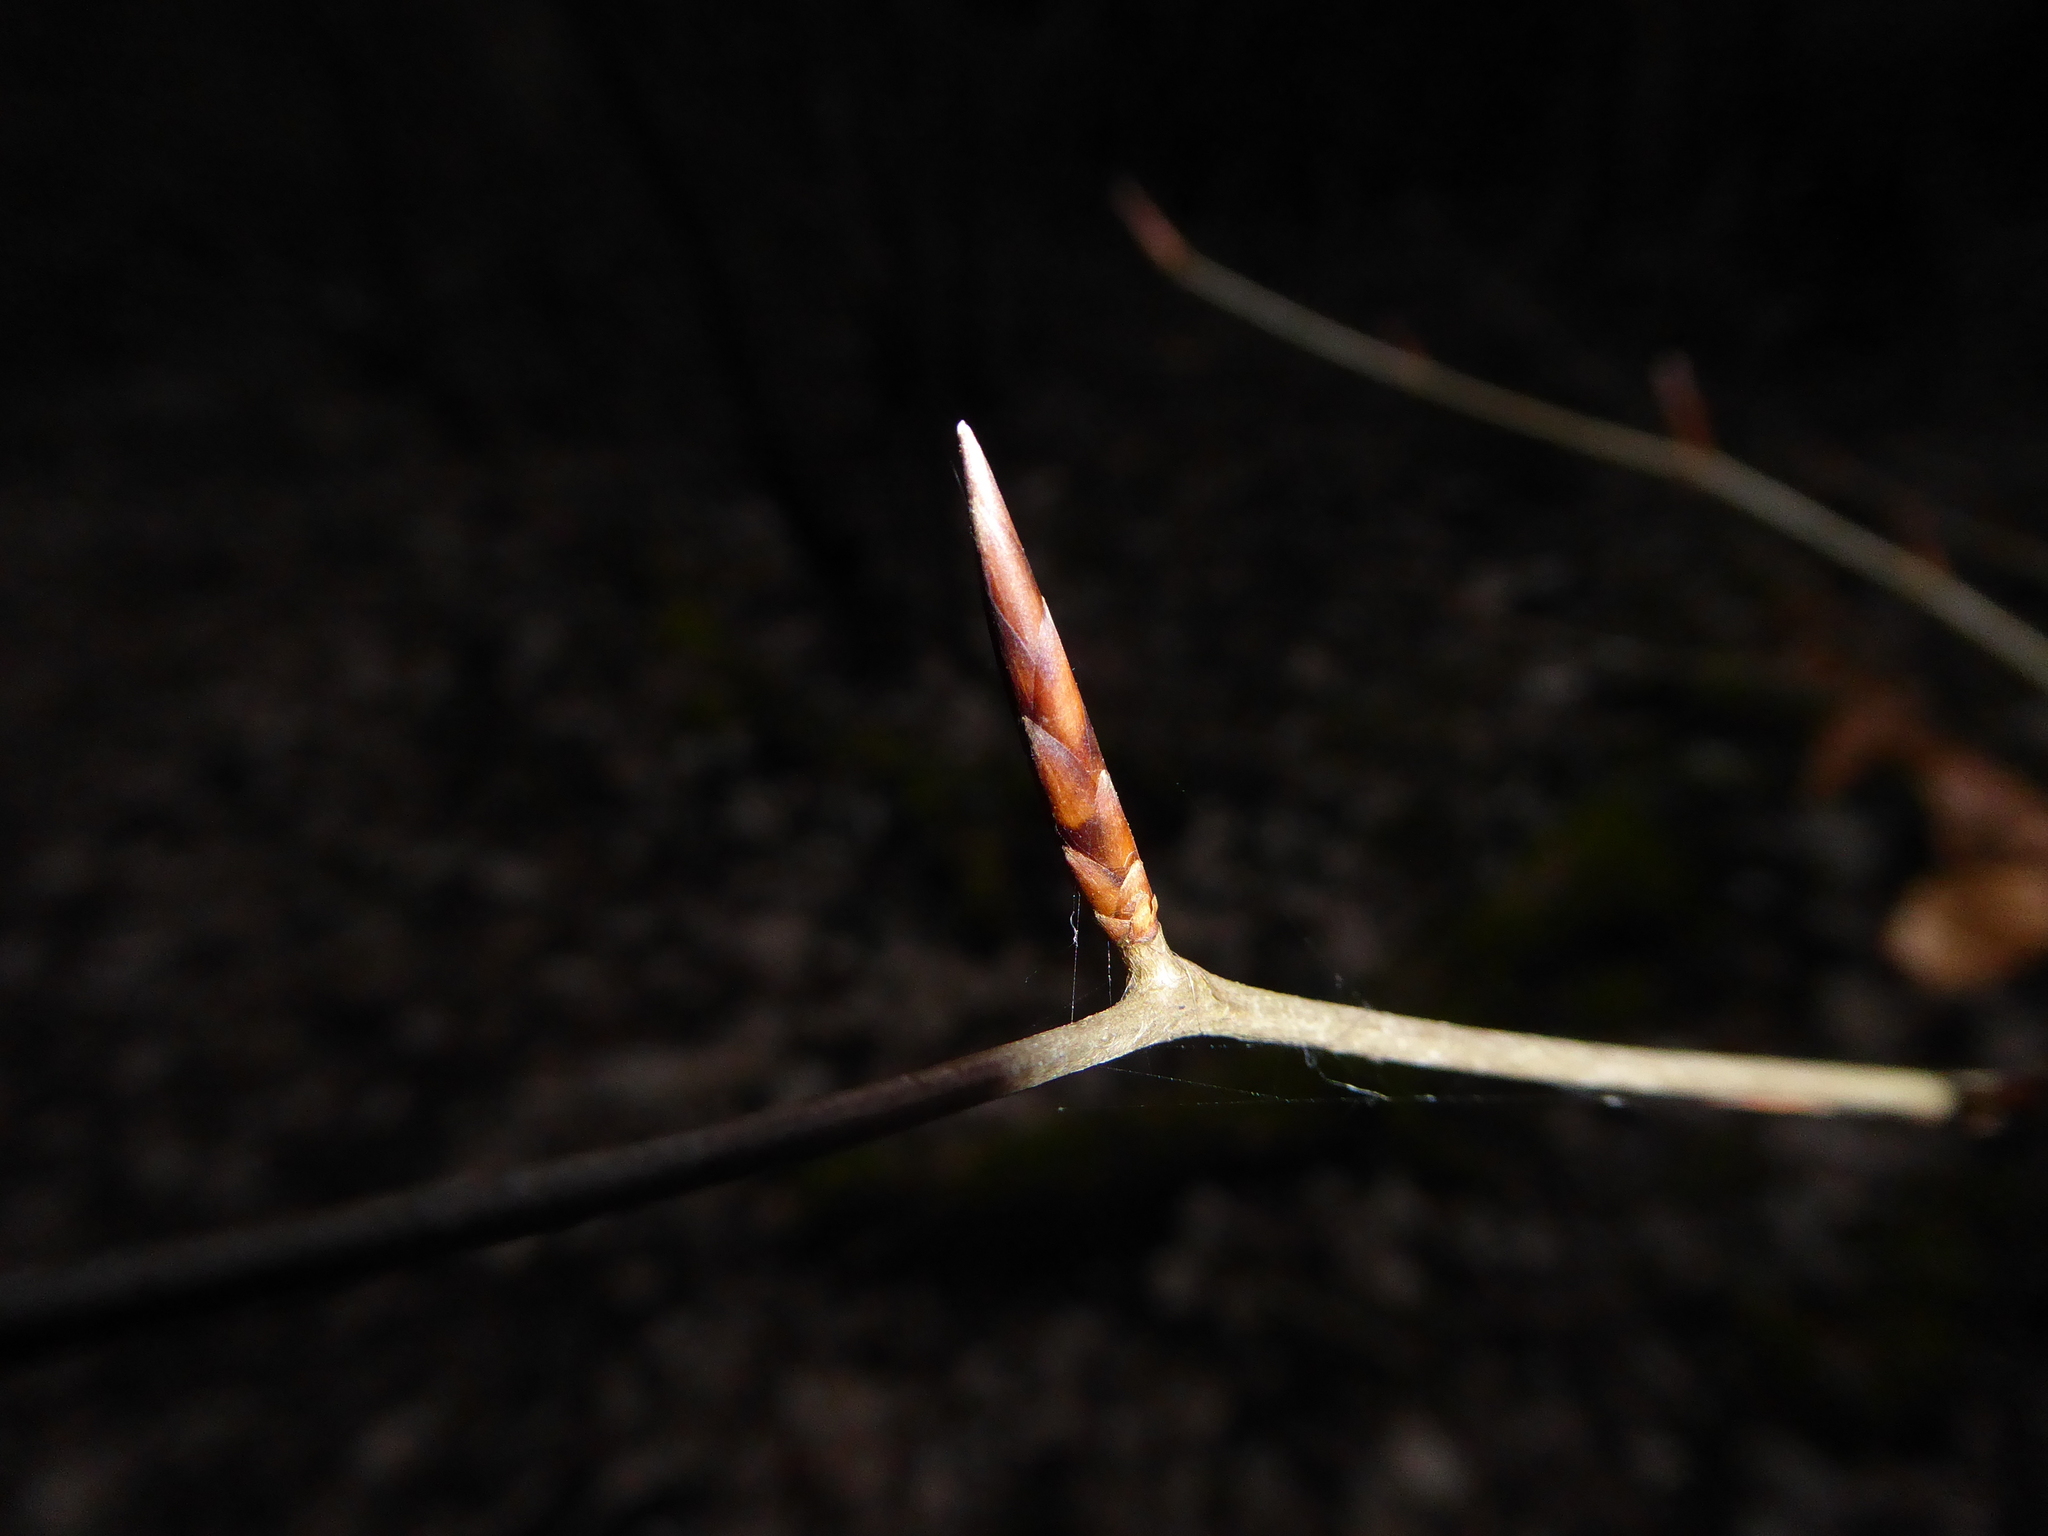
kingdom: Plantae
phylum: Tracheophyta
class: Magnoliopsida
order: Fagales
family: Fagaceae
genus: Fagus
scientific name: Fagus sylvatica
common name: Beech
